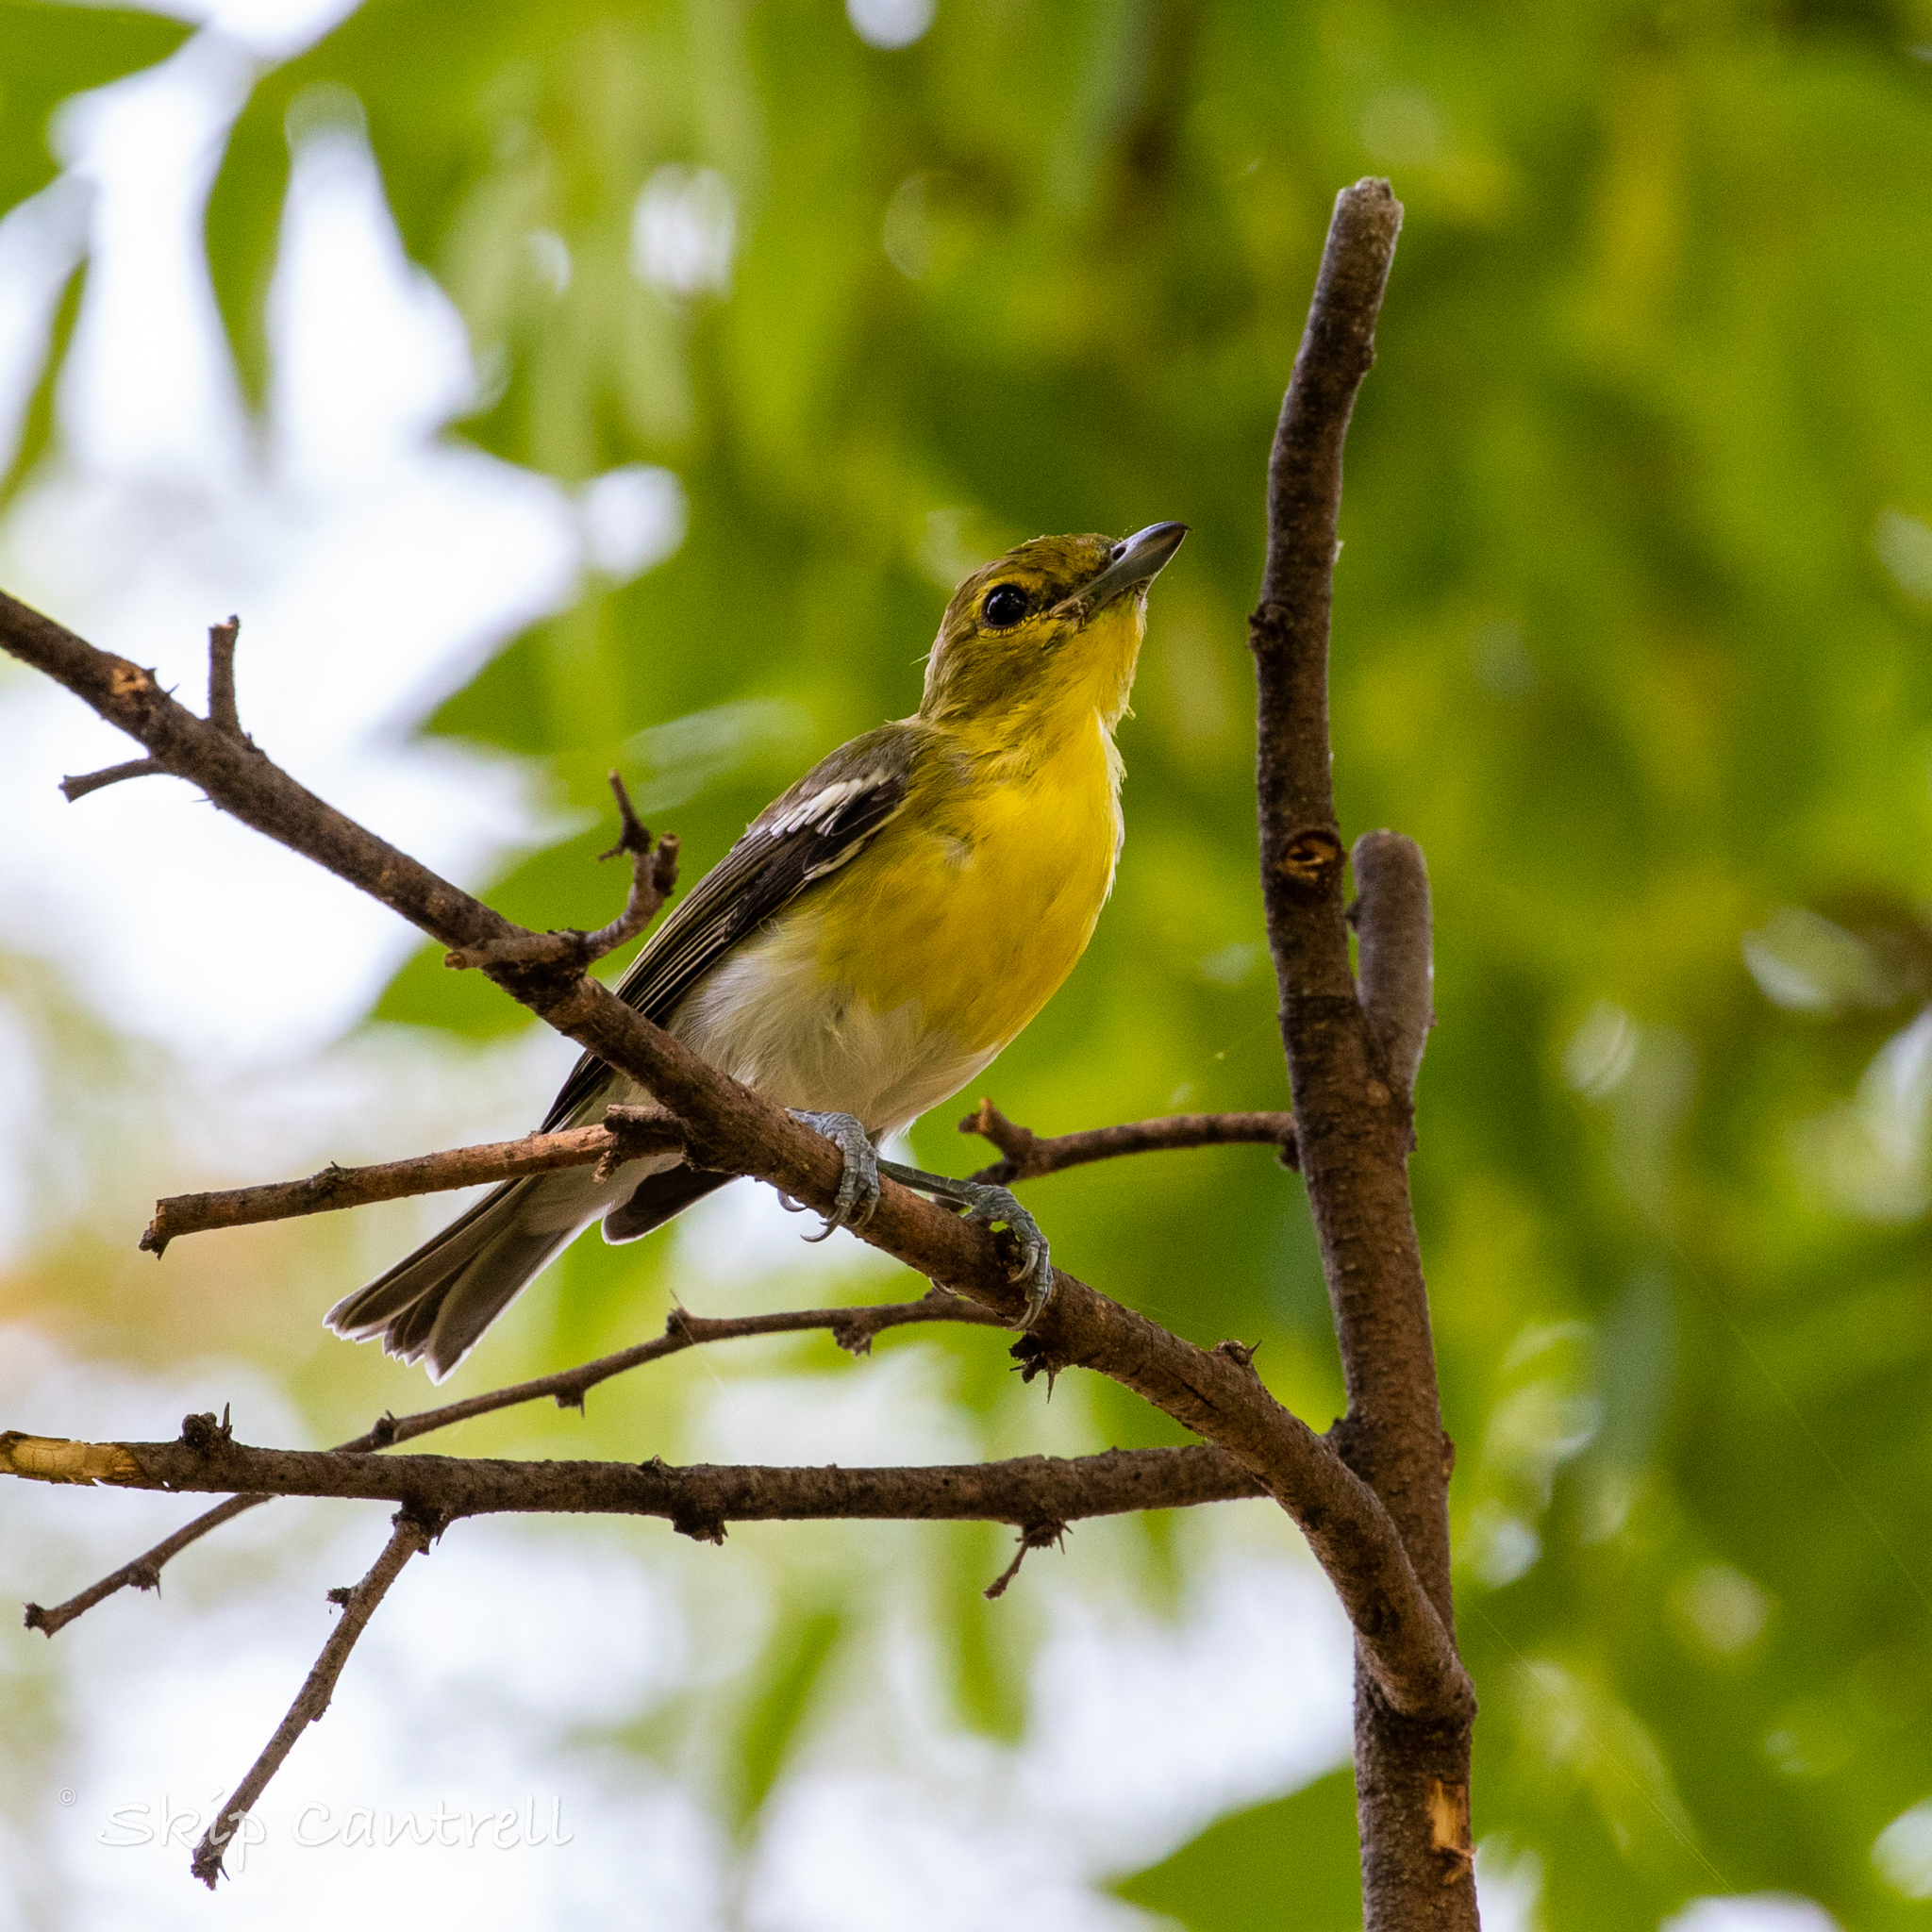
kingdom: Animalia
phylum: Chordata
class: Aves
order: Passeriformes
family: Vireonidae
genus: Vireo
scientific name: Vireo flavifrons
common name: Yellow-throated vireo
